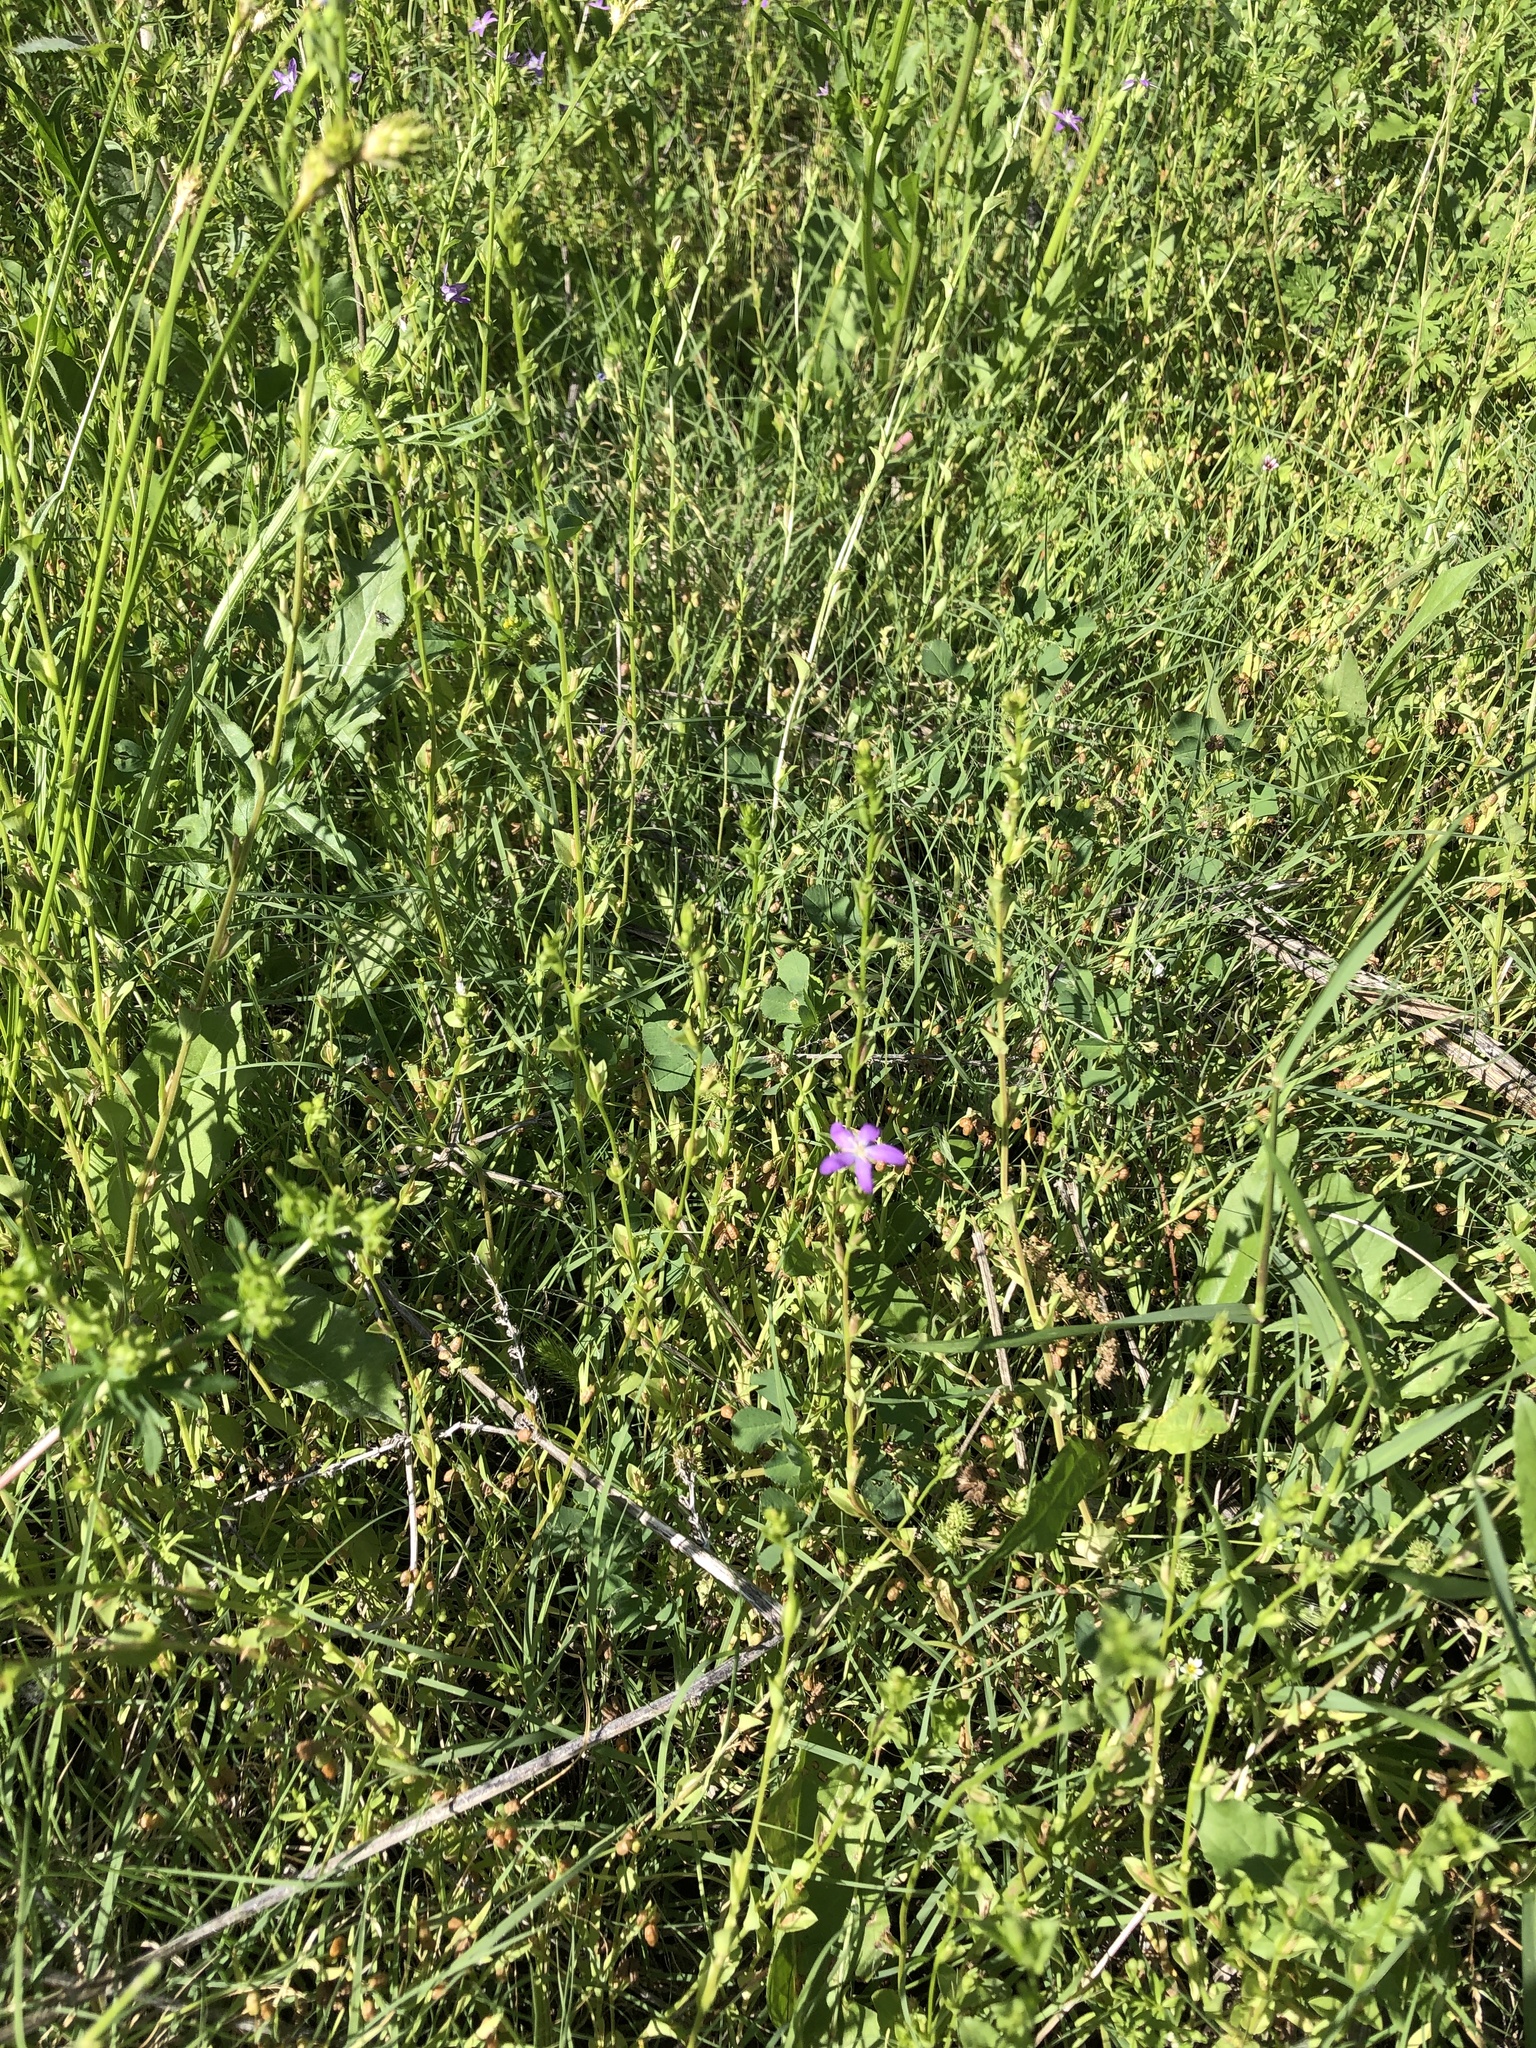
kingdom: Plantae
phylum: Tracheophyta
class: Magnoliopsida
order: Asterales
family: Campanulaceae
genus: Triodanis
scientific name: Triodanis biflora
